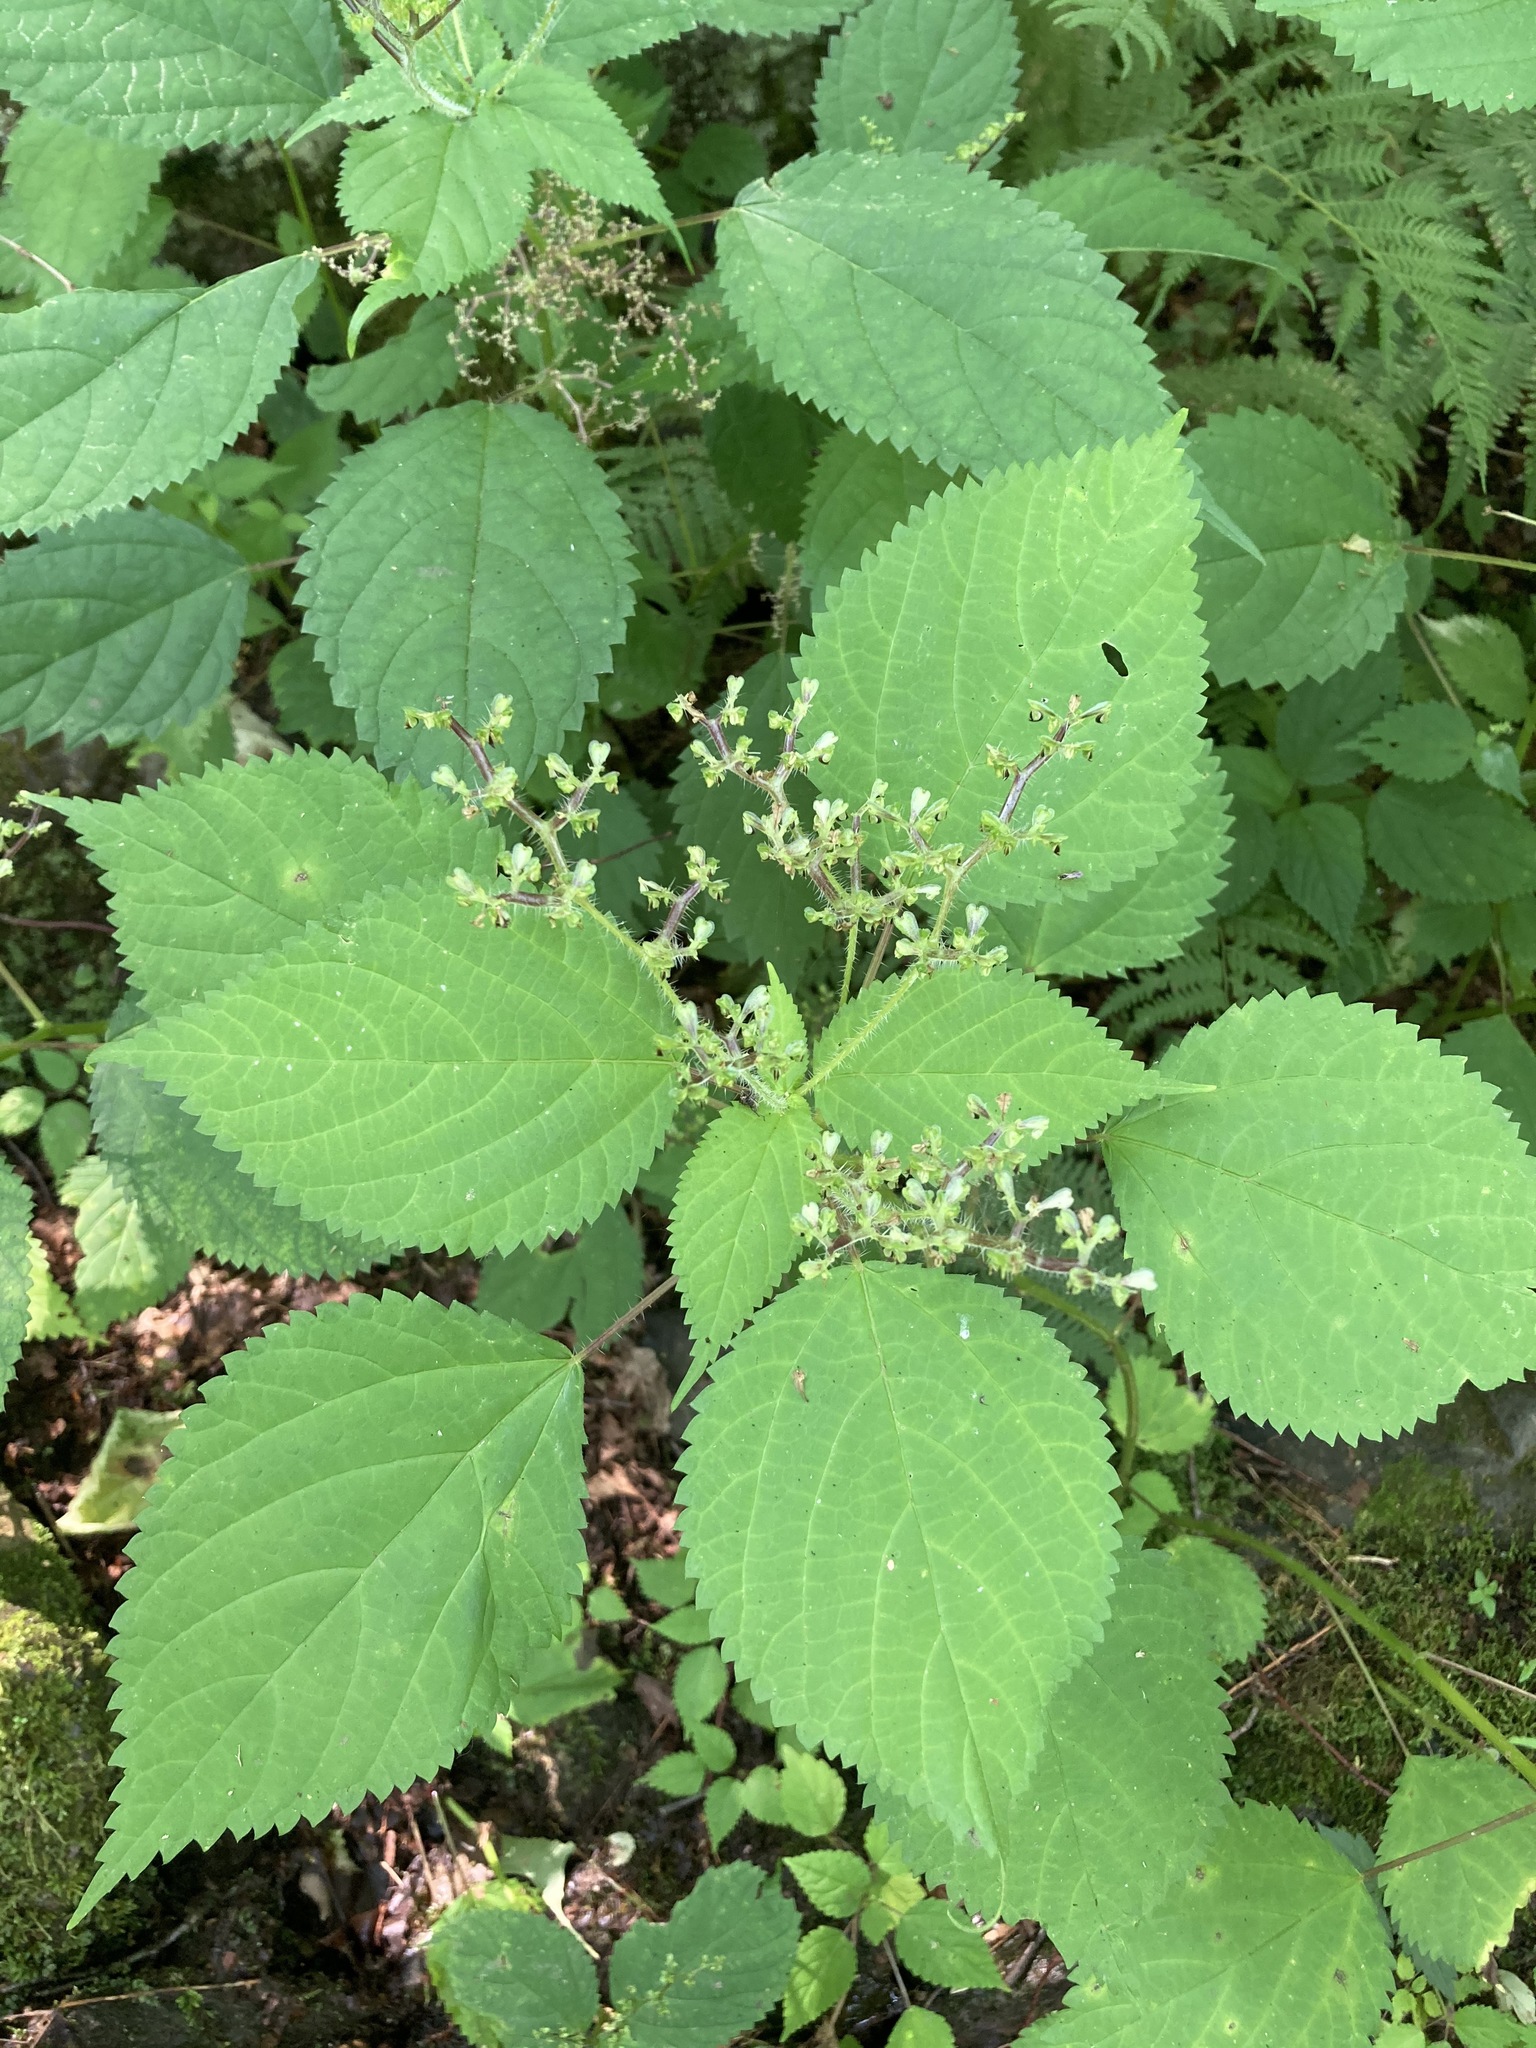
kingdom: Plantae
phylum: Tracheophyta
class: Magnoliopsida
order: Rosales
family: Urticaceae
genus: Laportea
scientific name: Laportea canadensis
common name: Canada nettle
